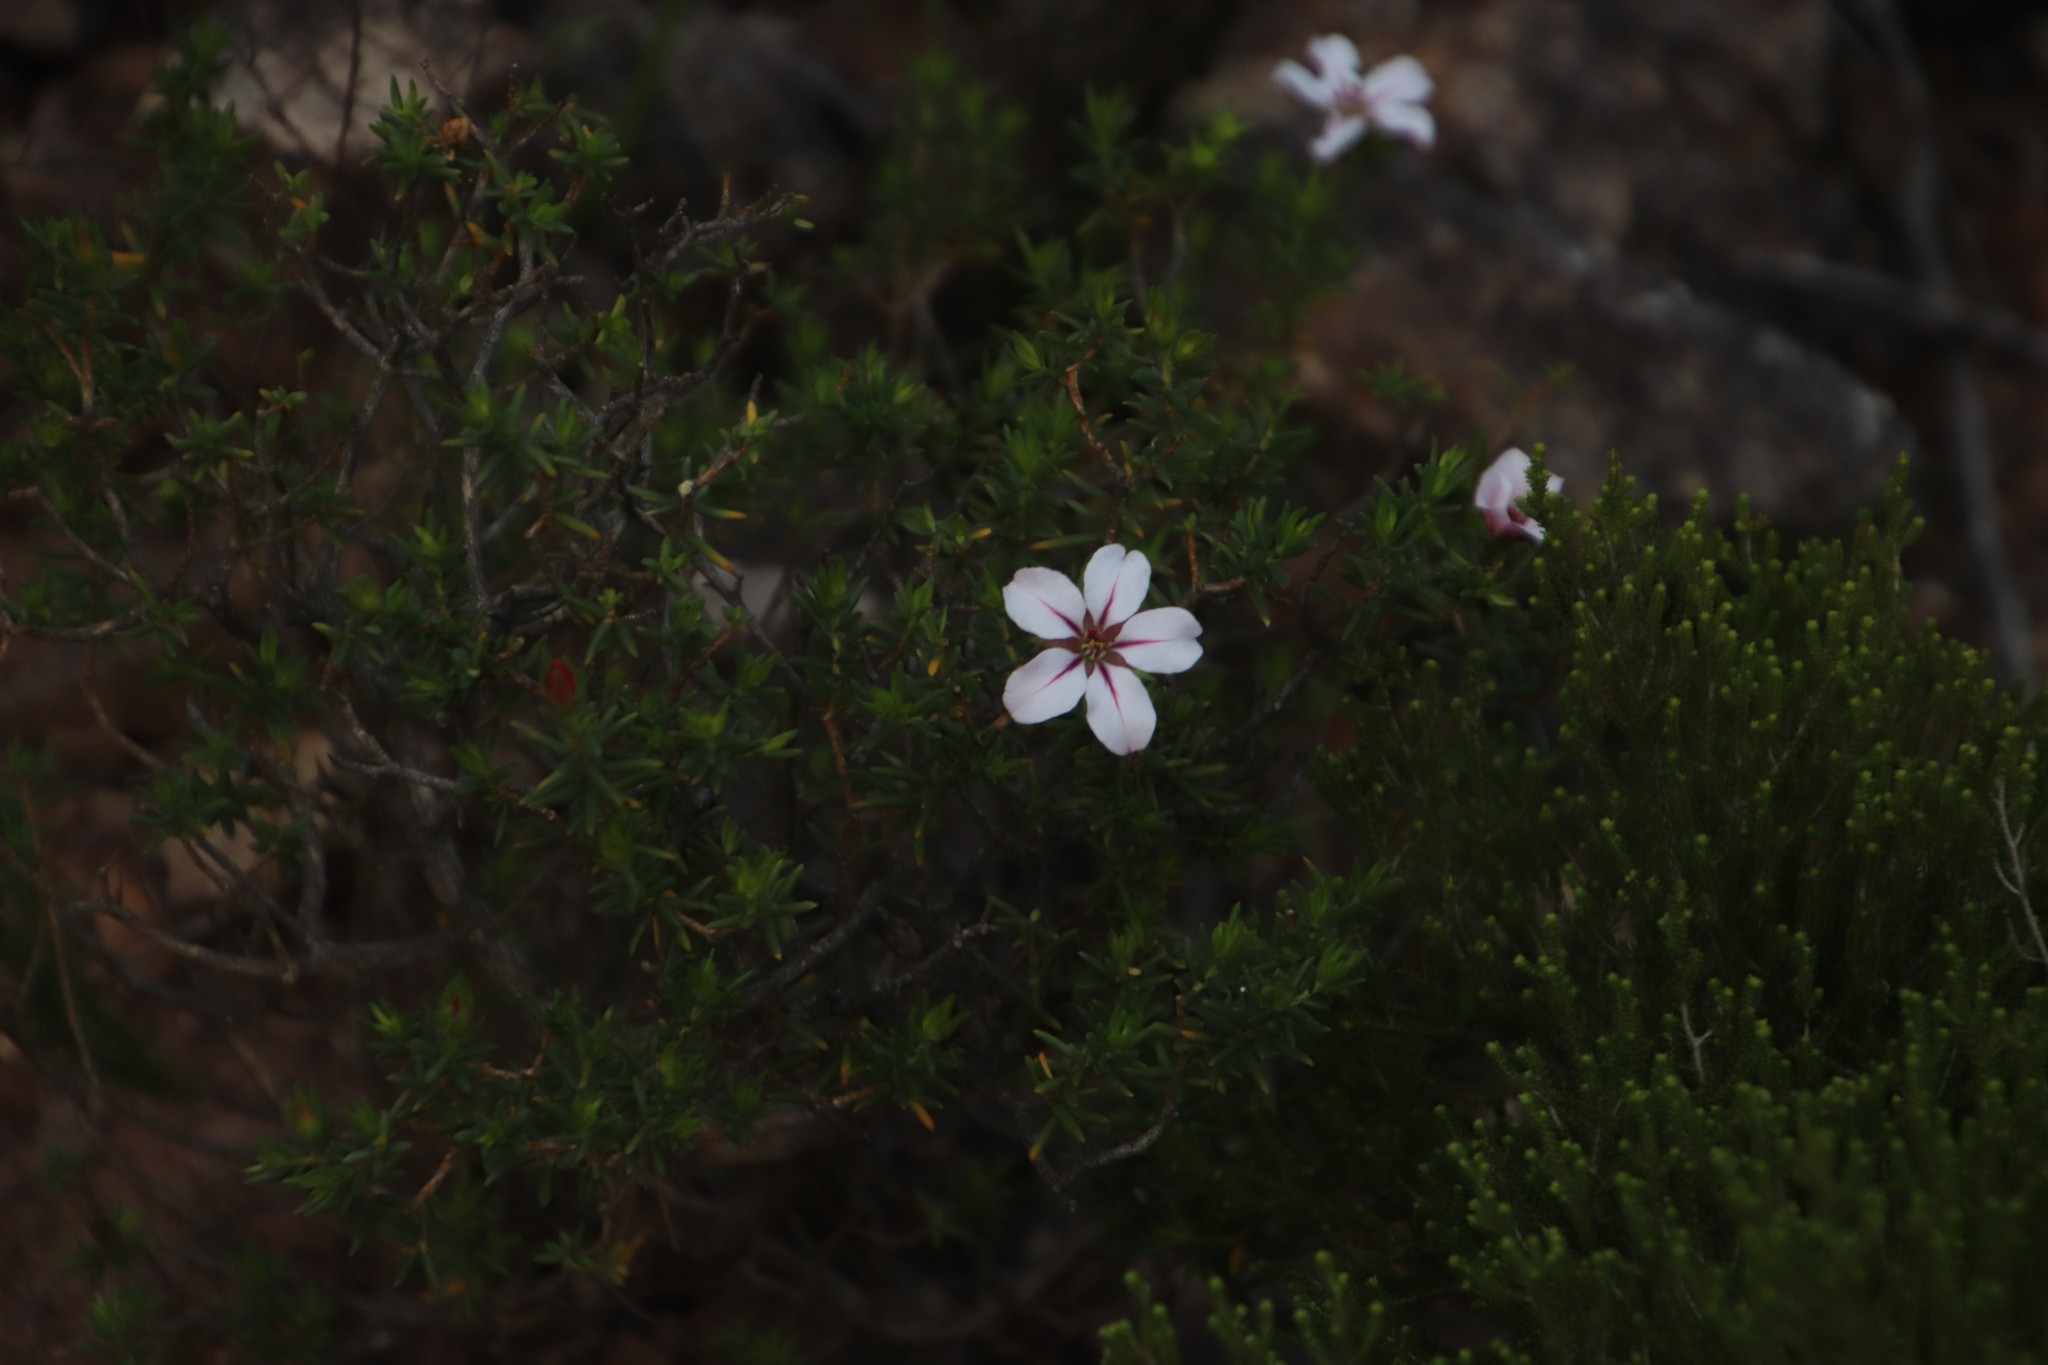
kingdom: Plantae
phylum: Tracheophyta
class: Magnoliopsida
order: Sapindales
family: Rutaceae
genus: Adenandra
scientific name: Adenandra villosa
